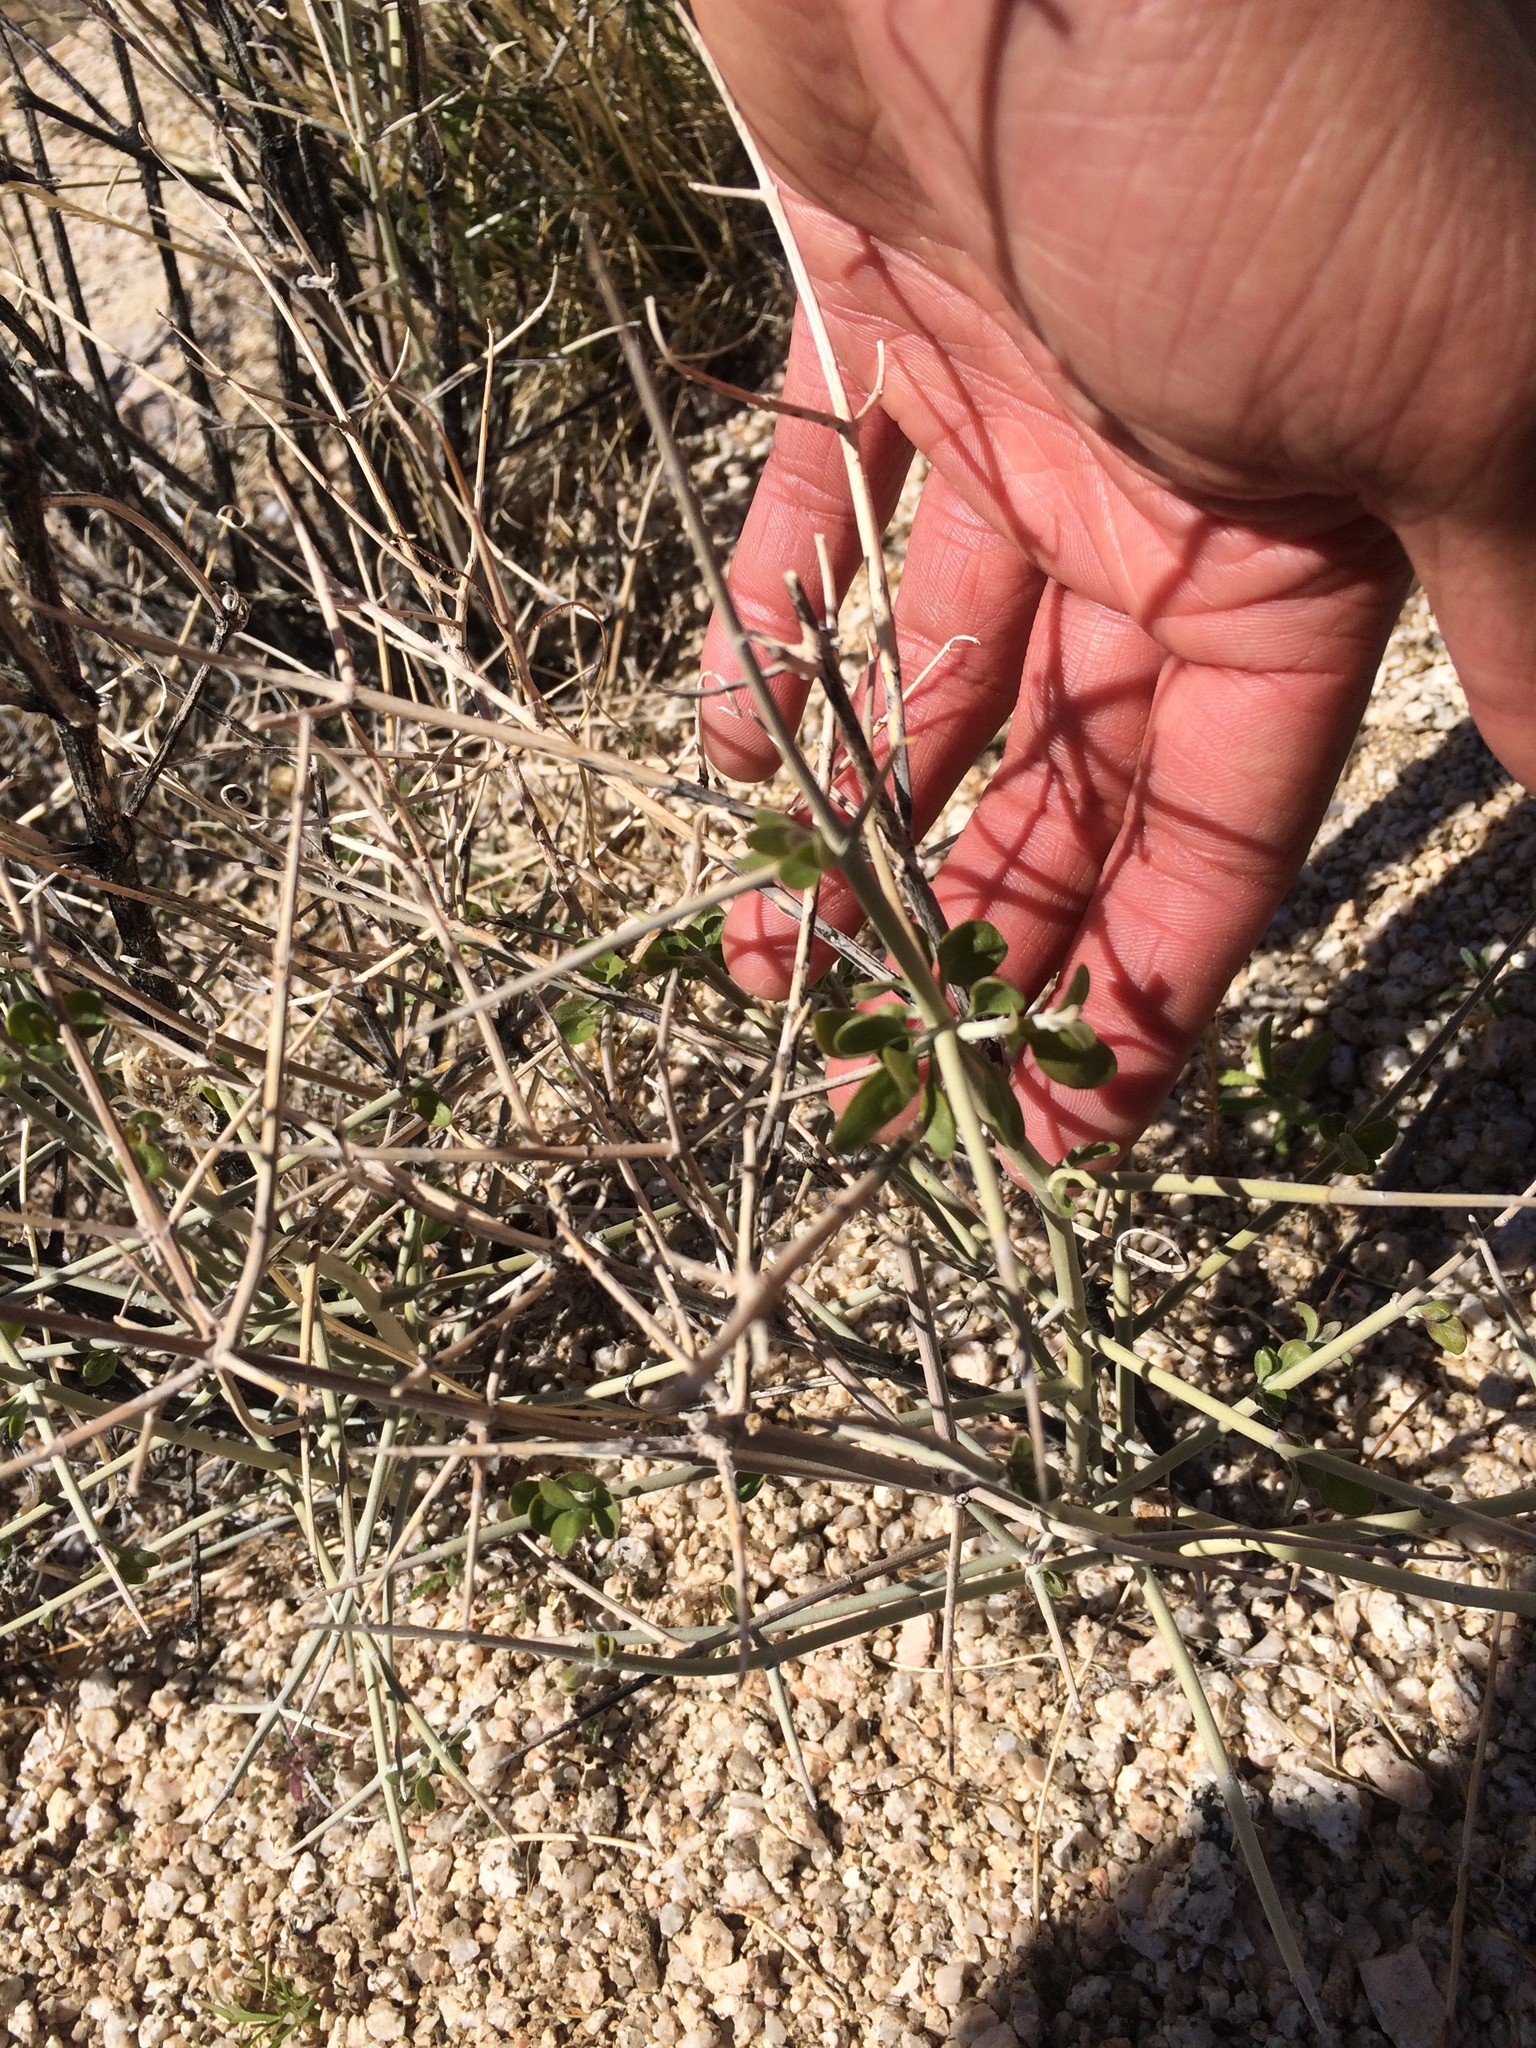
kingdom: Plantae
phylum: Tracheophyta
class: Magnoliopsida
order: Lamiales
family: Lamiaceae
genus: Scutellaria
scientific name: Scutellaria mexicana
